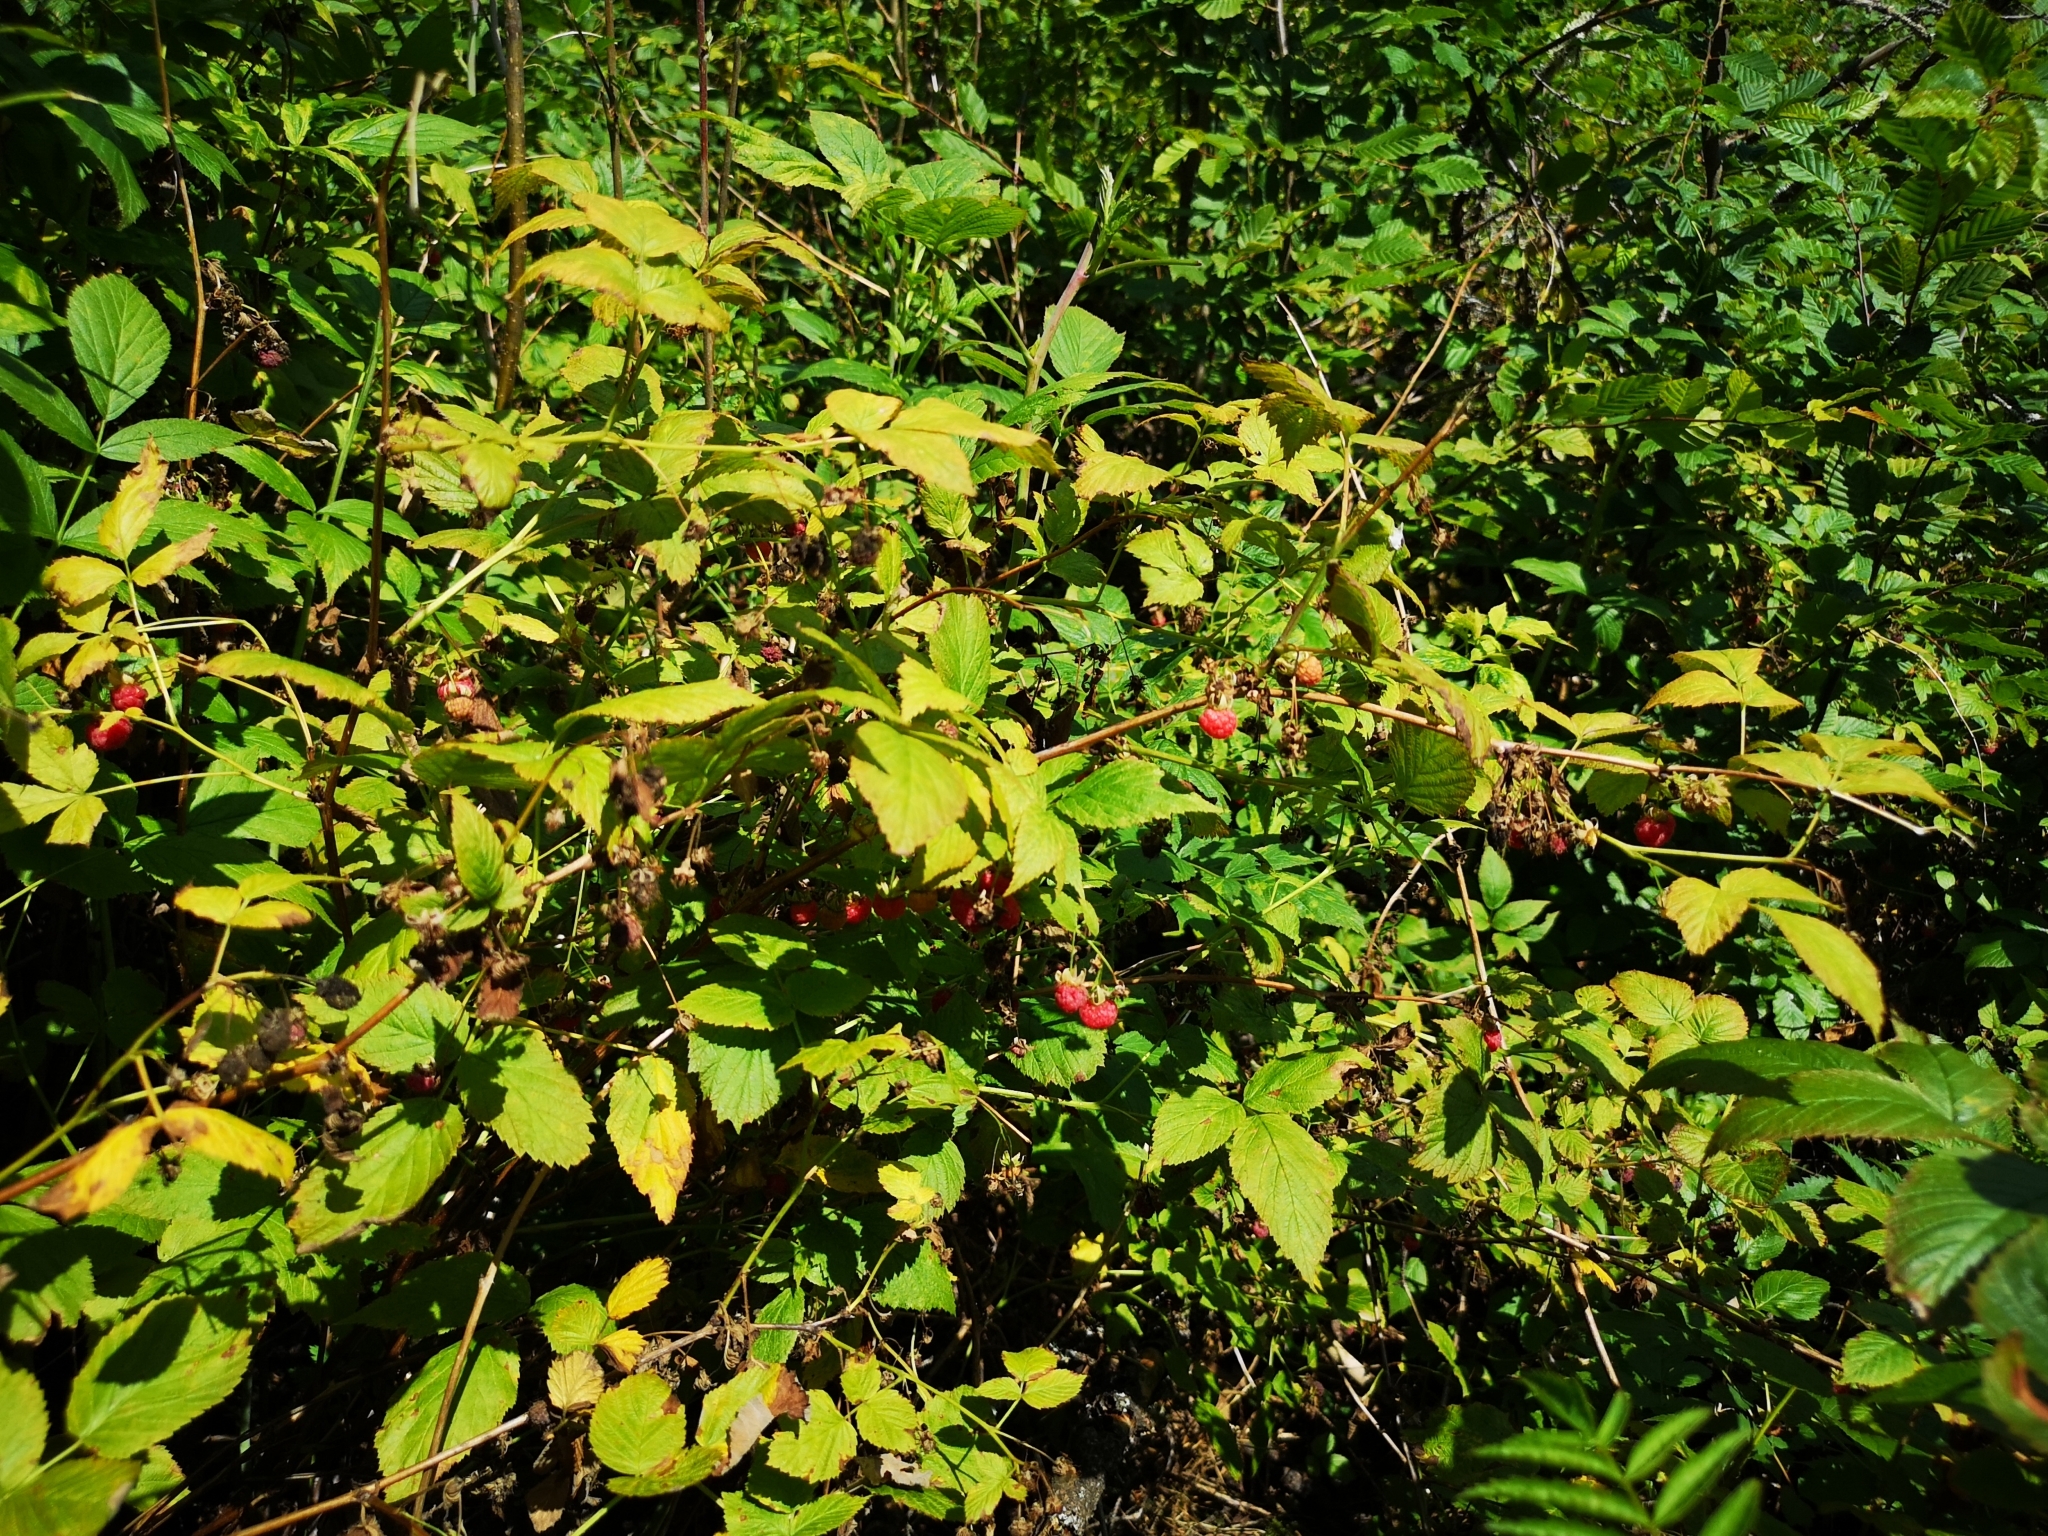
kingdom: Plantae
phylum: Tracheophyta
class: Magnoliopsida
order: Rosales
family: Rosaceae
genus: Rubus
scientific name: Rubus idaeus
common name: Raspberry
